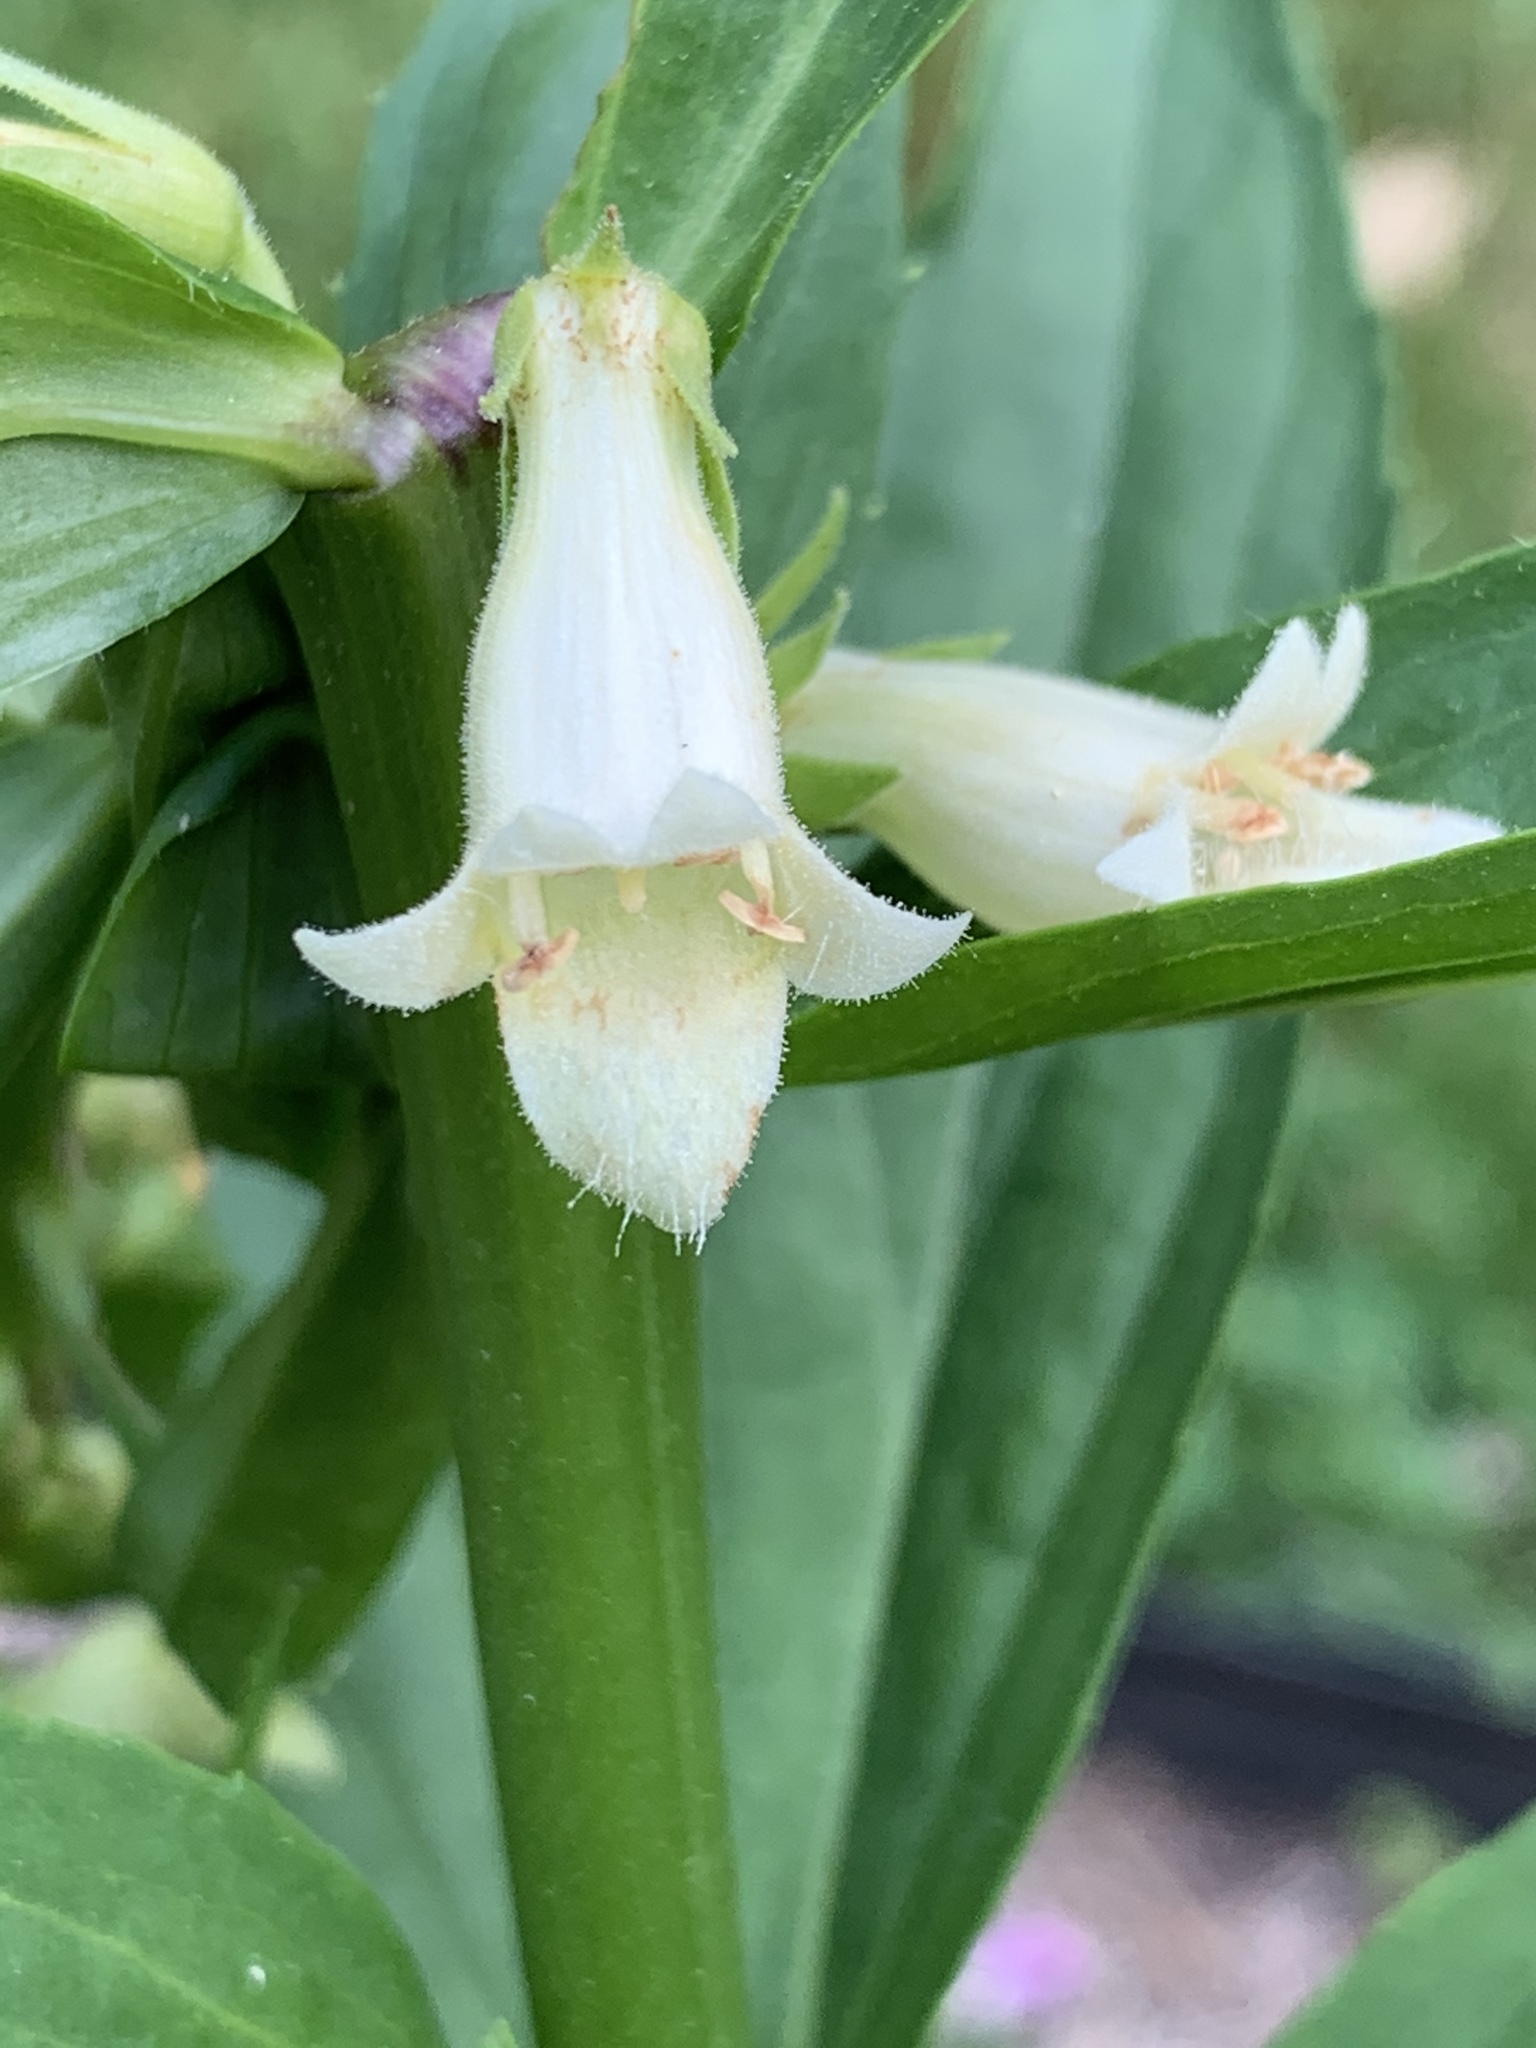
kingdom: Plantae
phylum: Tracheophyta
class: Magnoliopsida
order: Lamiales
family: Plantaginaceae
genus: Digitalis
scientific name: Digitalis lutea
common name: Straw foxglove
